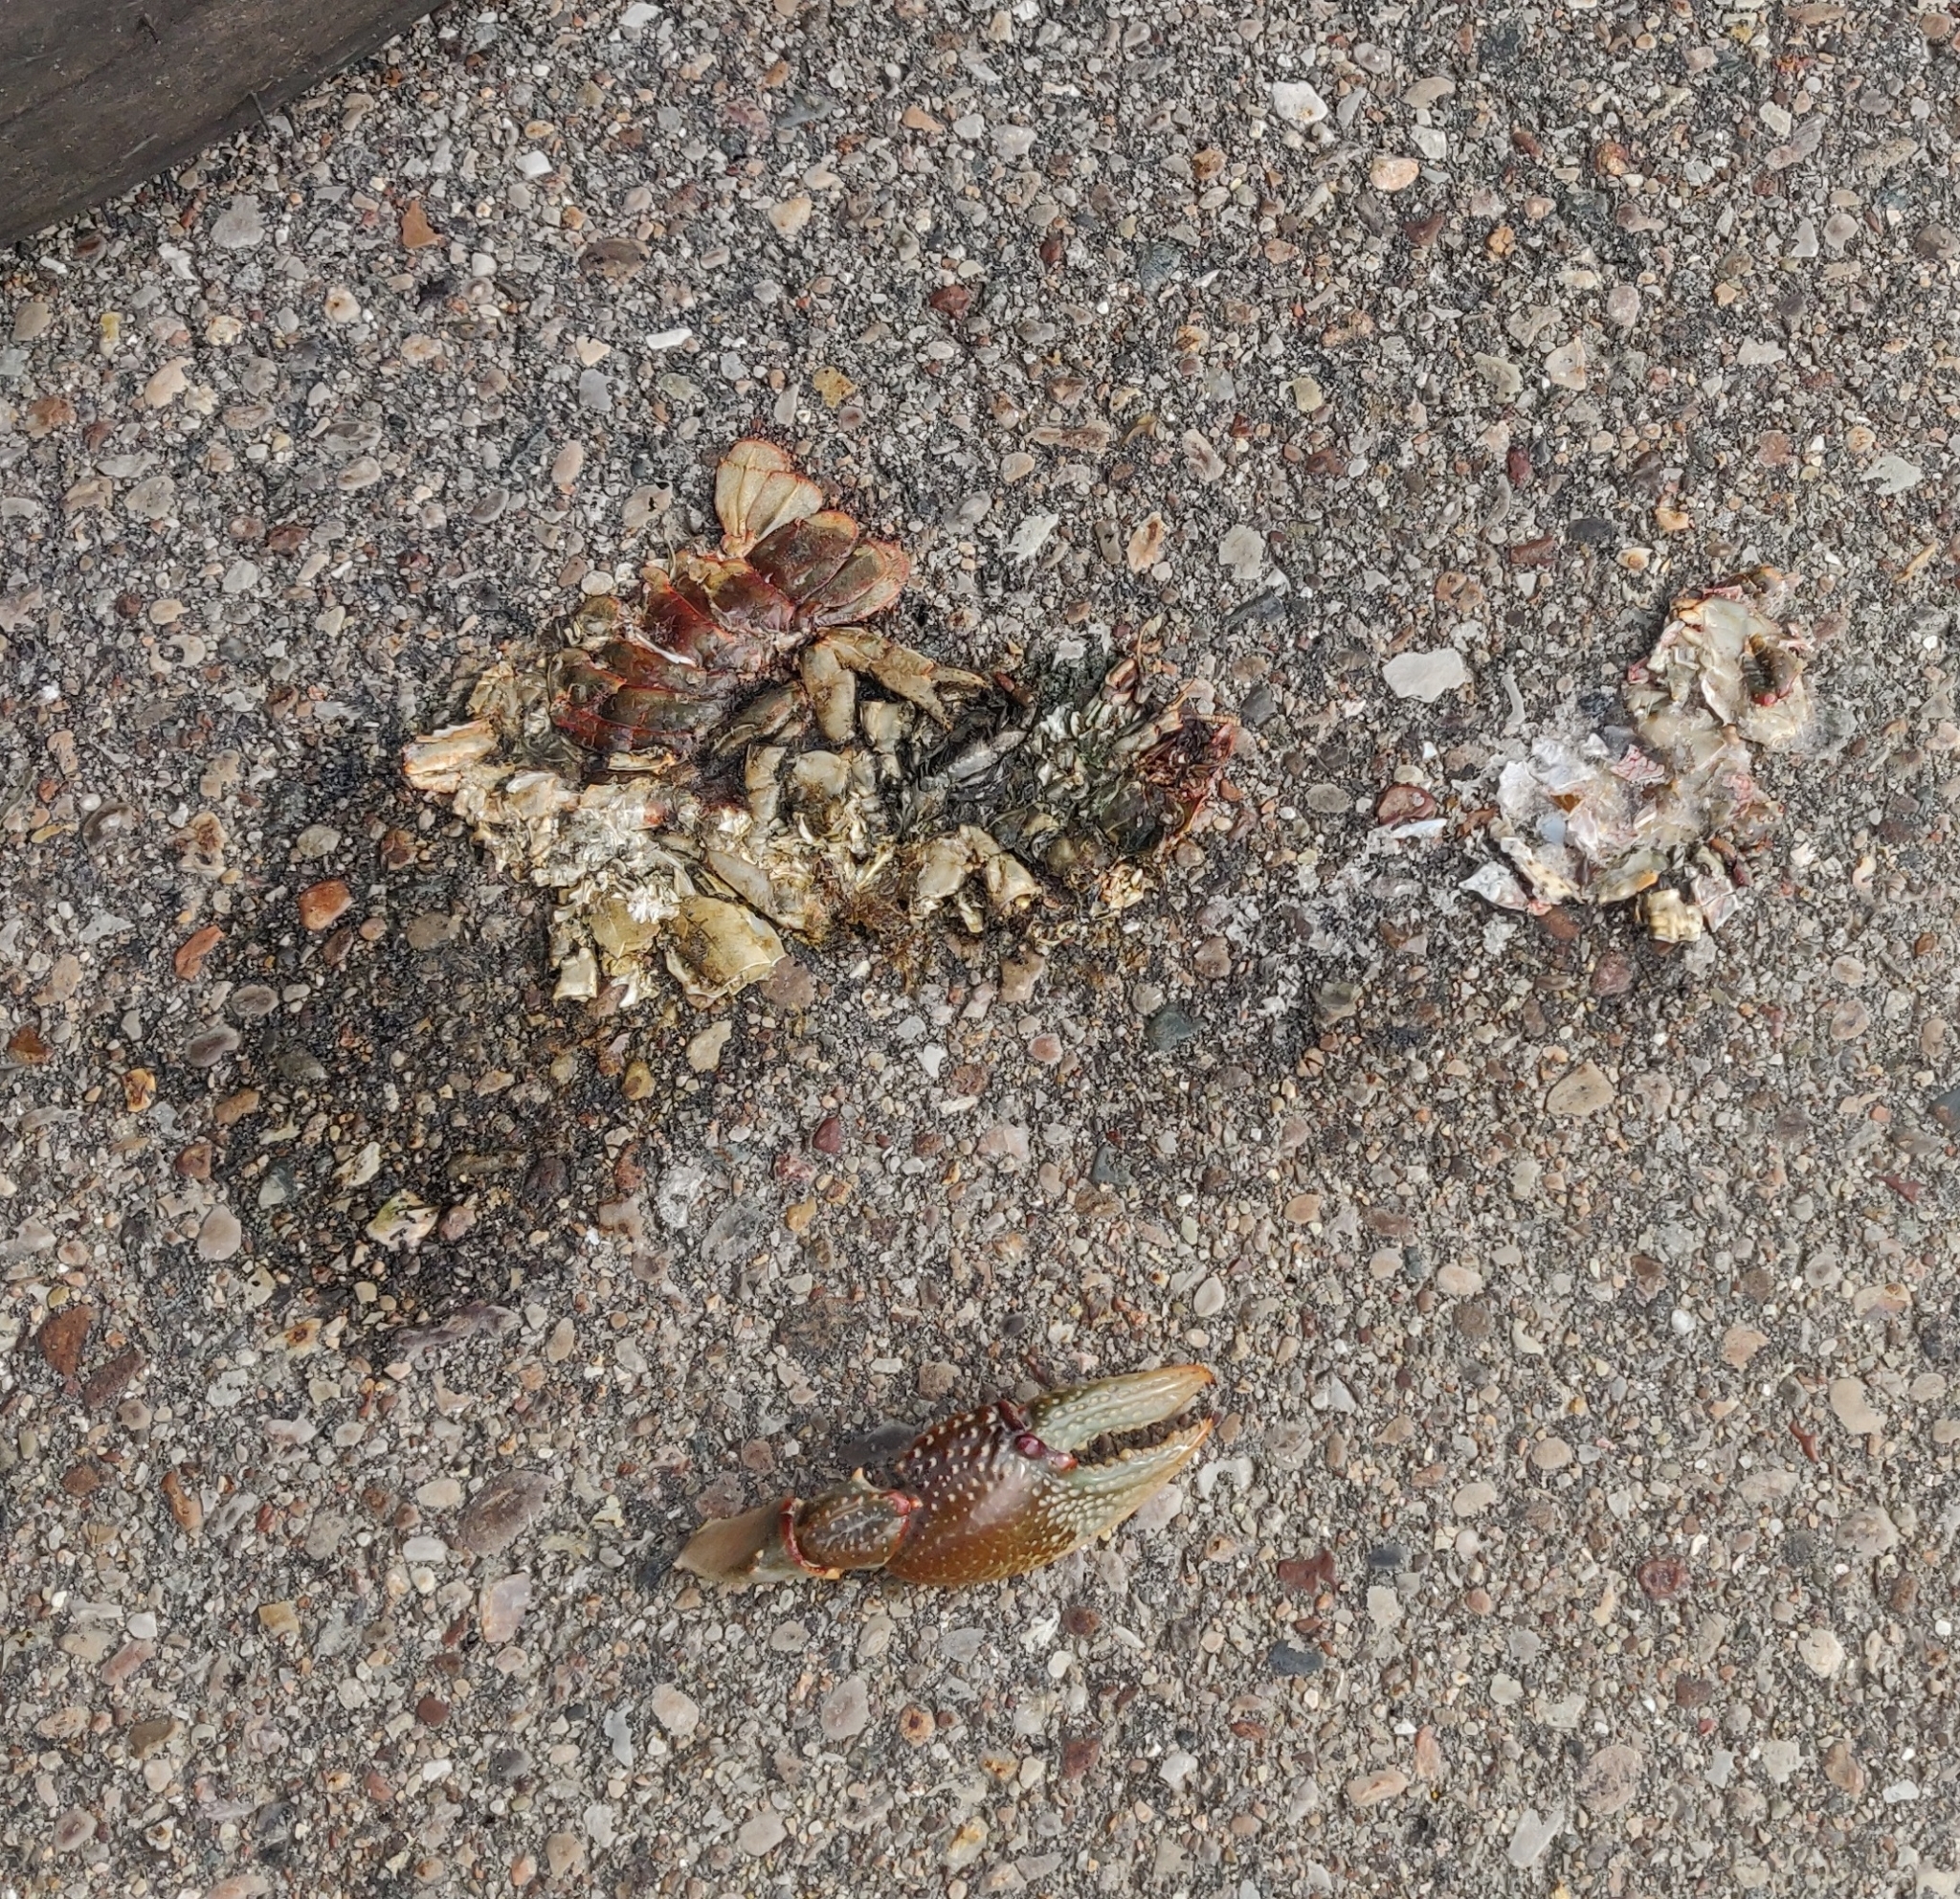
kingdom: Animalia
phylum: Arthropoda
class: Malacostraca
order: Decapoda
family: Cambaridae
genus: Lacunicambarus
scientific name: Lacunicambarus polychromatus
